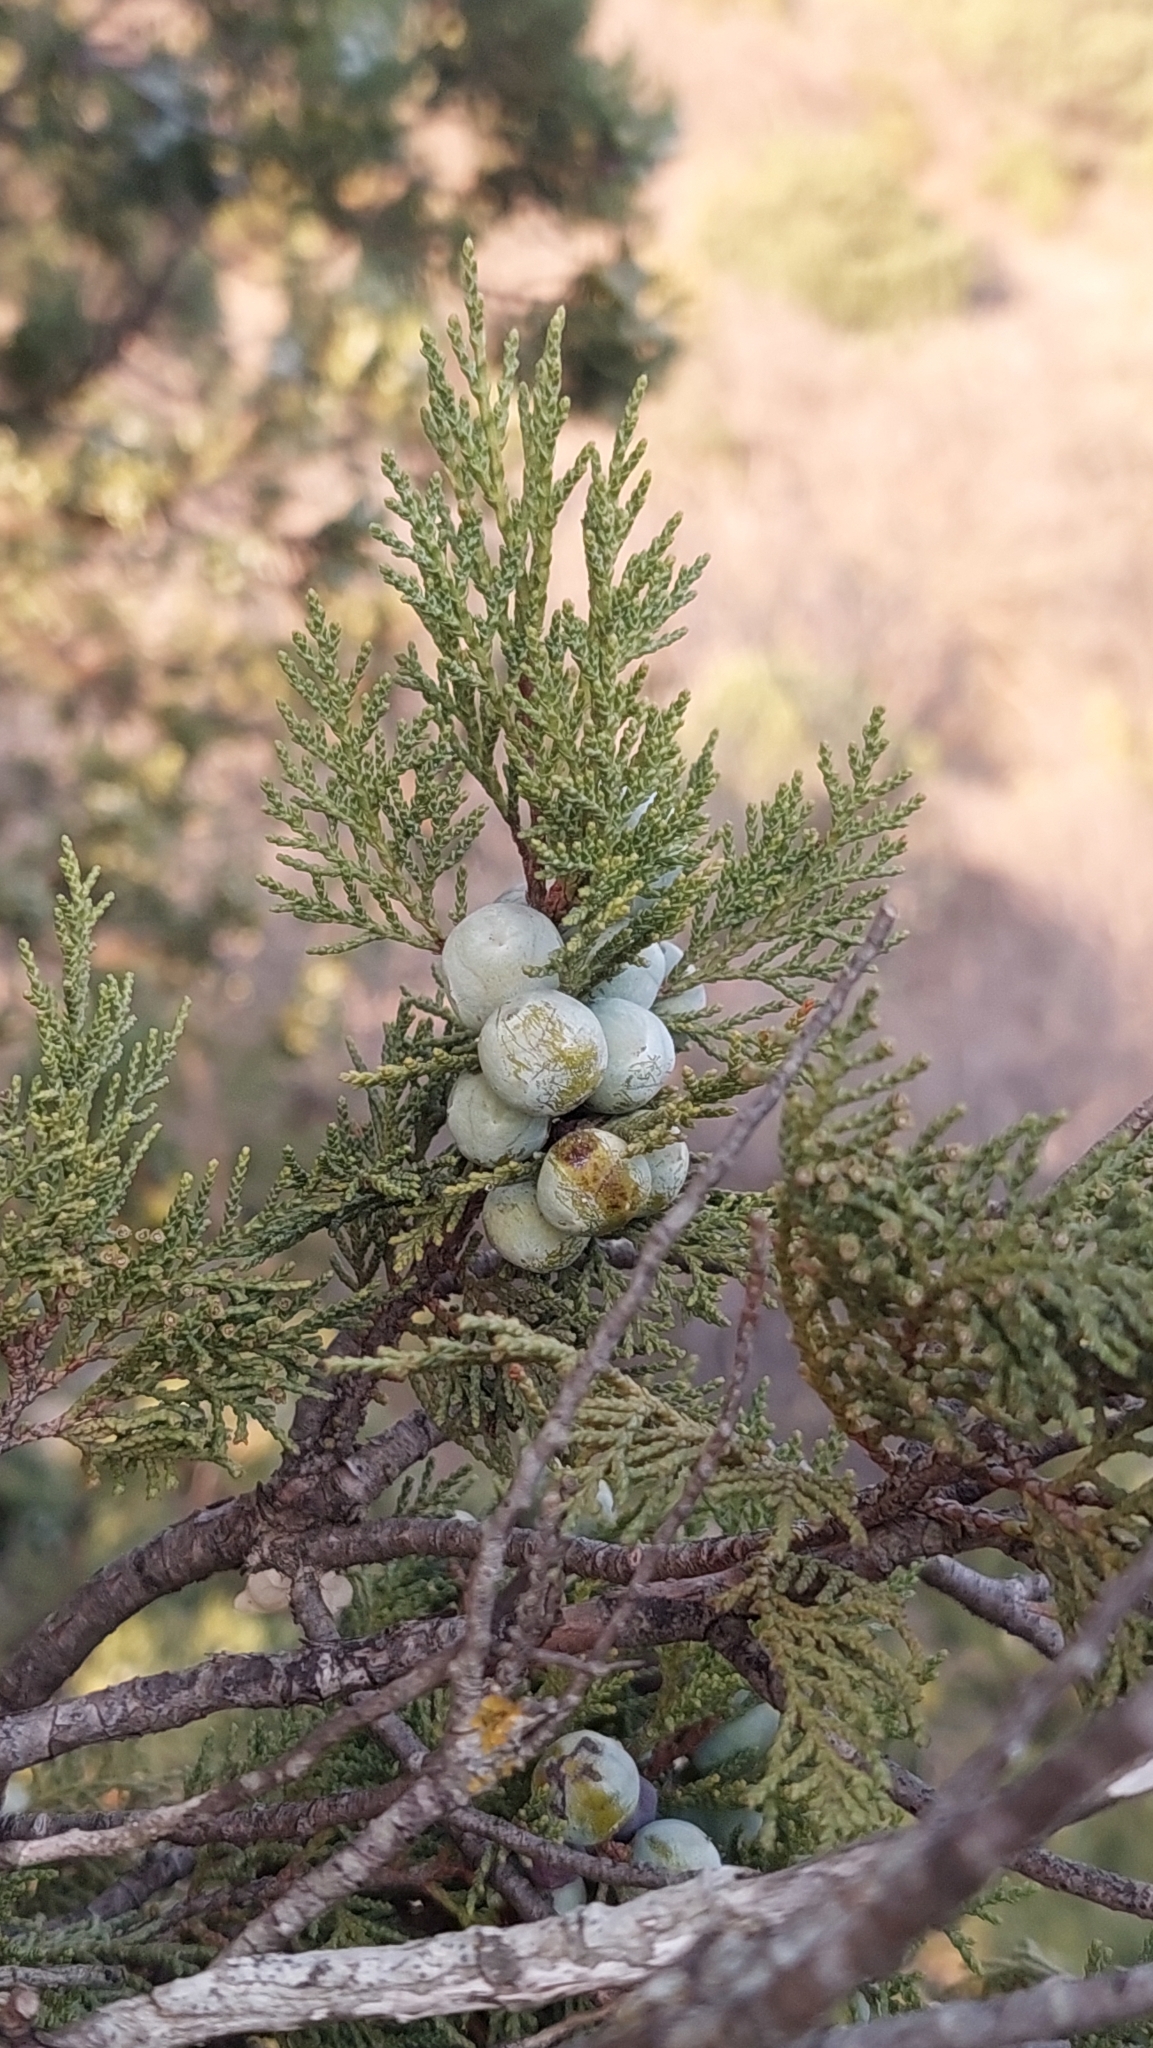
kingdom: Plantae
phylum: Tracheophyta
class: Pinopsida
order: Pinales
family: Cupressaceae
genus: Juniperus
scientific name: Juniperus excelsa
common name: Crimean juniper
